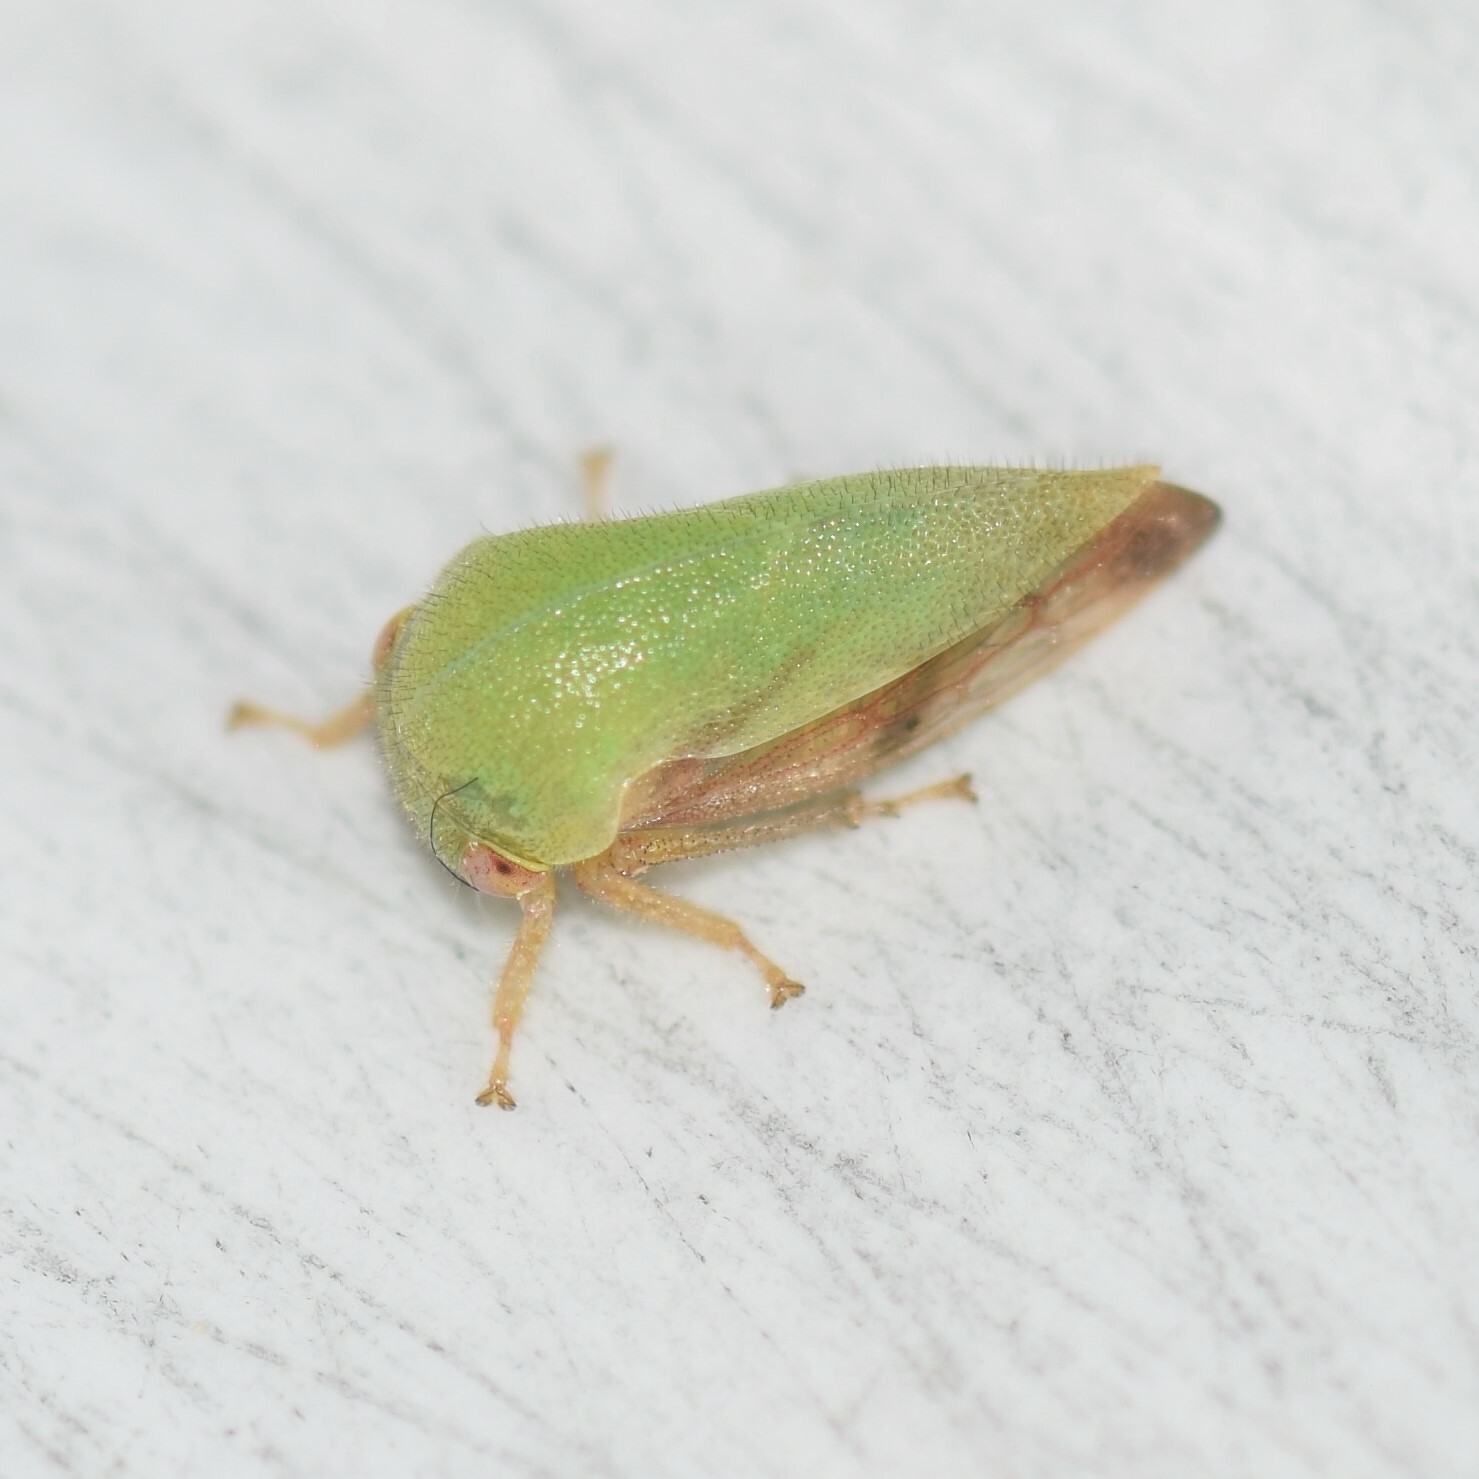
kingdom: Animalia
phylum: Arthropoda
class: Insecta
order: Hemiptera
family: Membracidae
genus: Ophiderma
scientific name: Ophiderma evelyna
